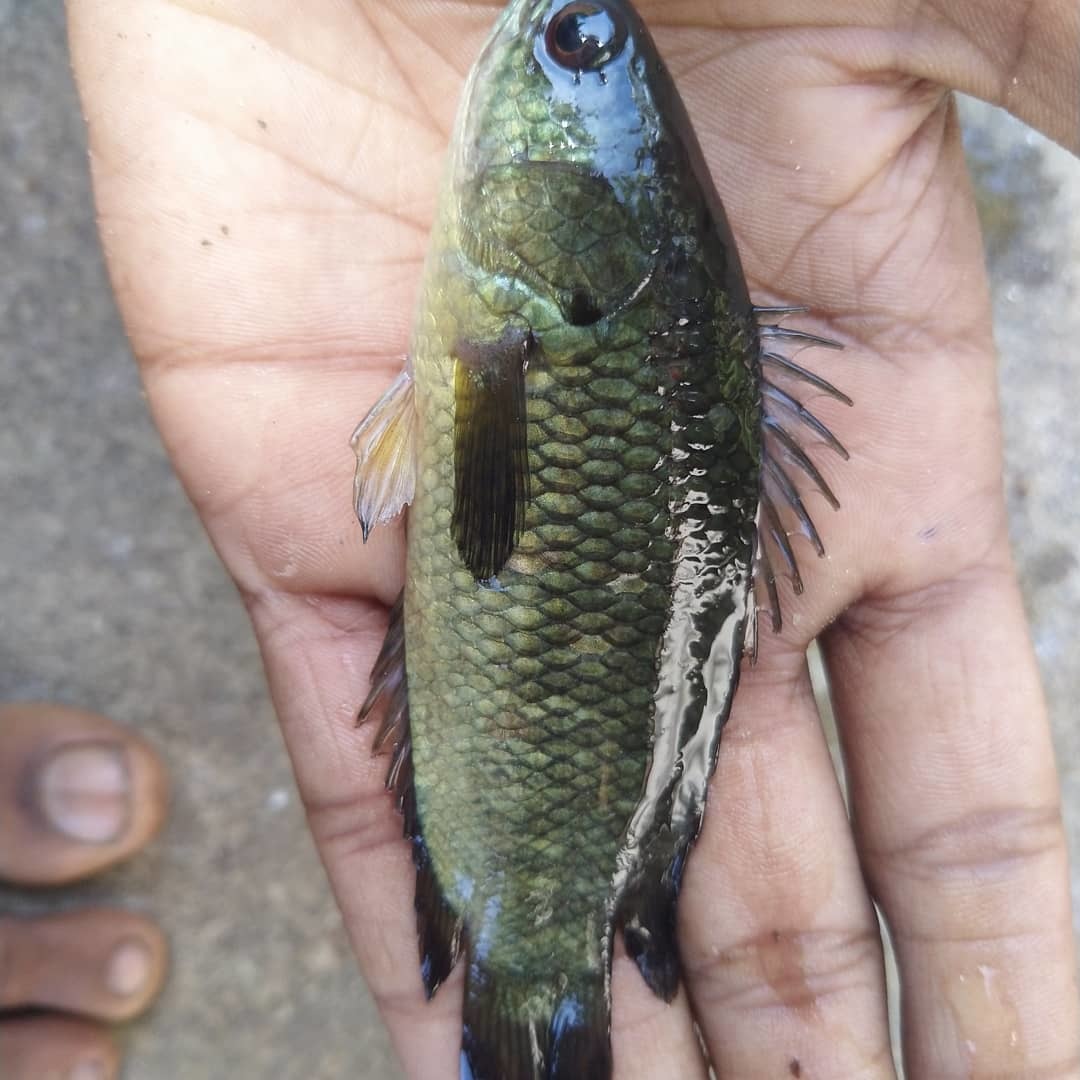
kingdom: Animalia
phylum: Chordata
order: Perciformes
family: Anabantidae
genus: Anabas
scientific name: Anabas testudineus
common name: Climbing perch
